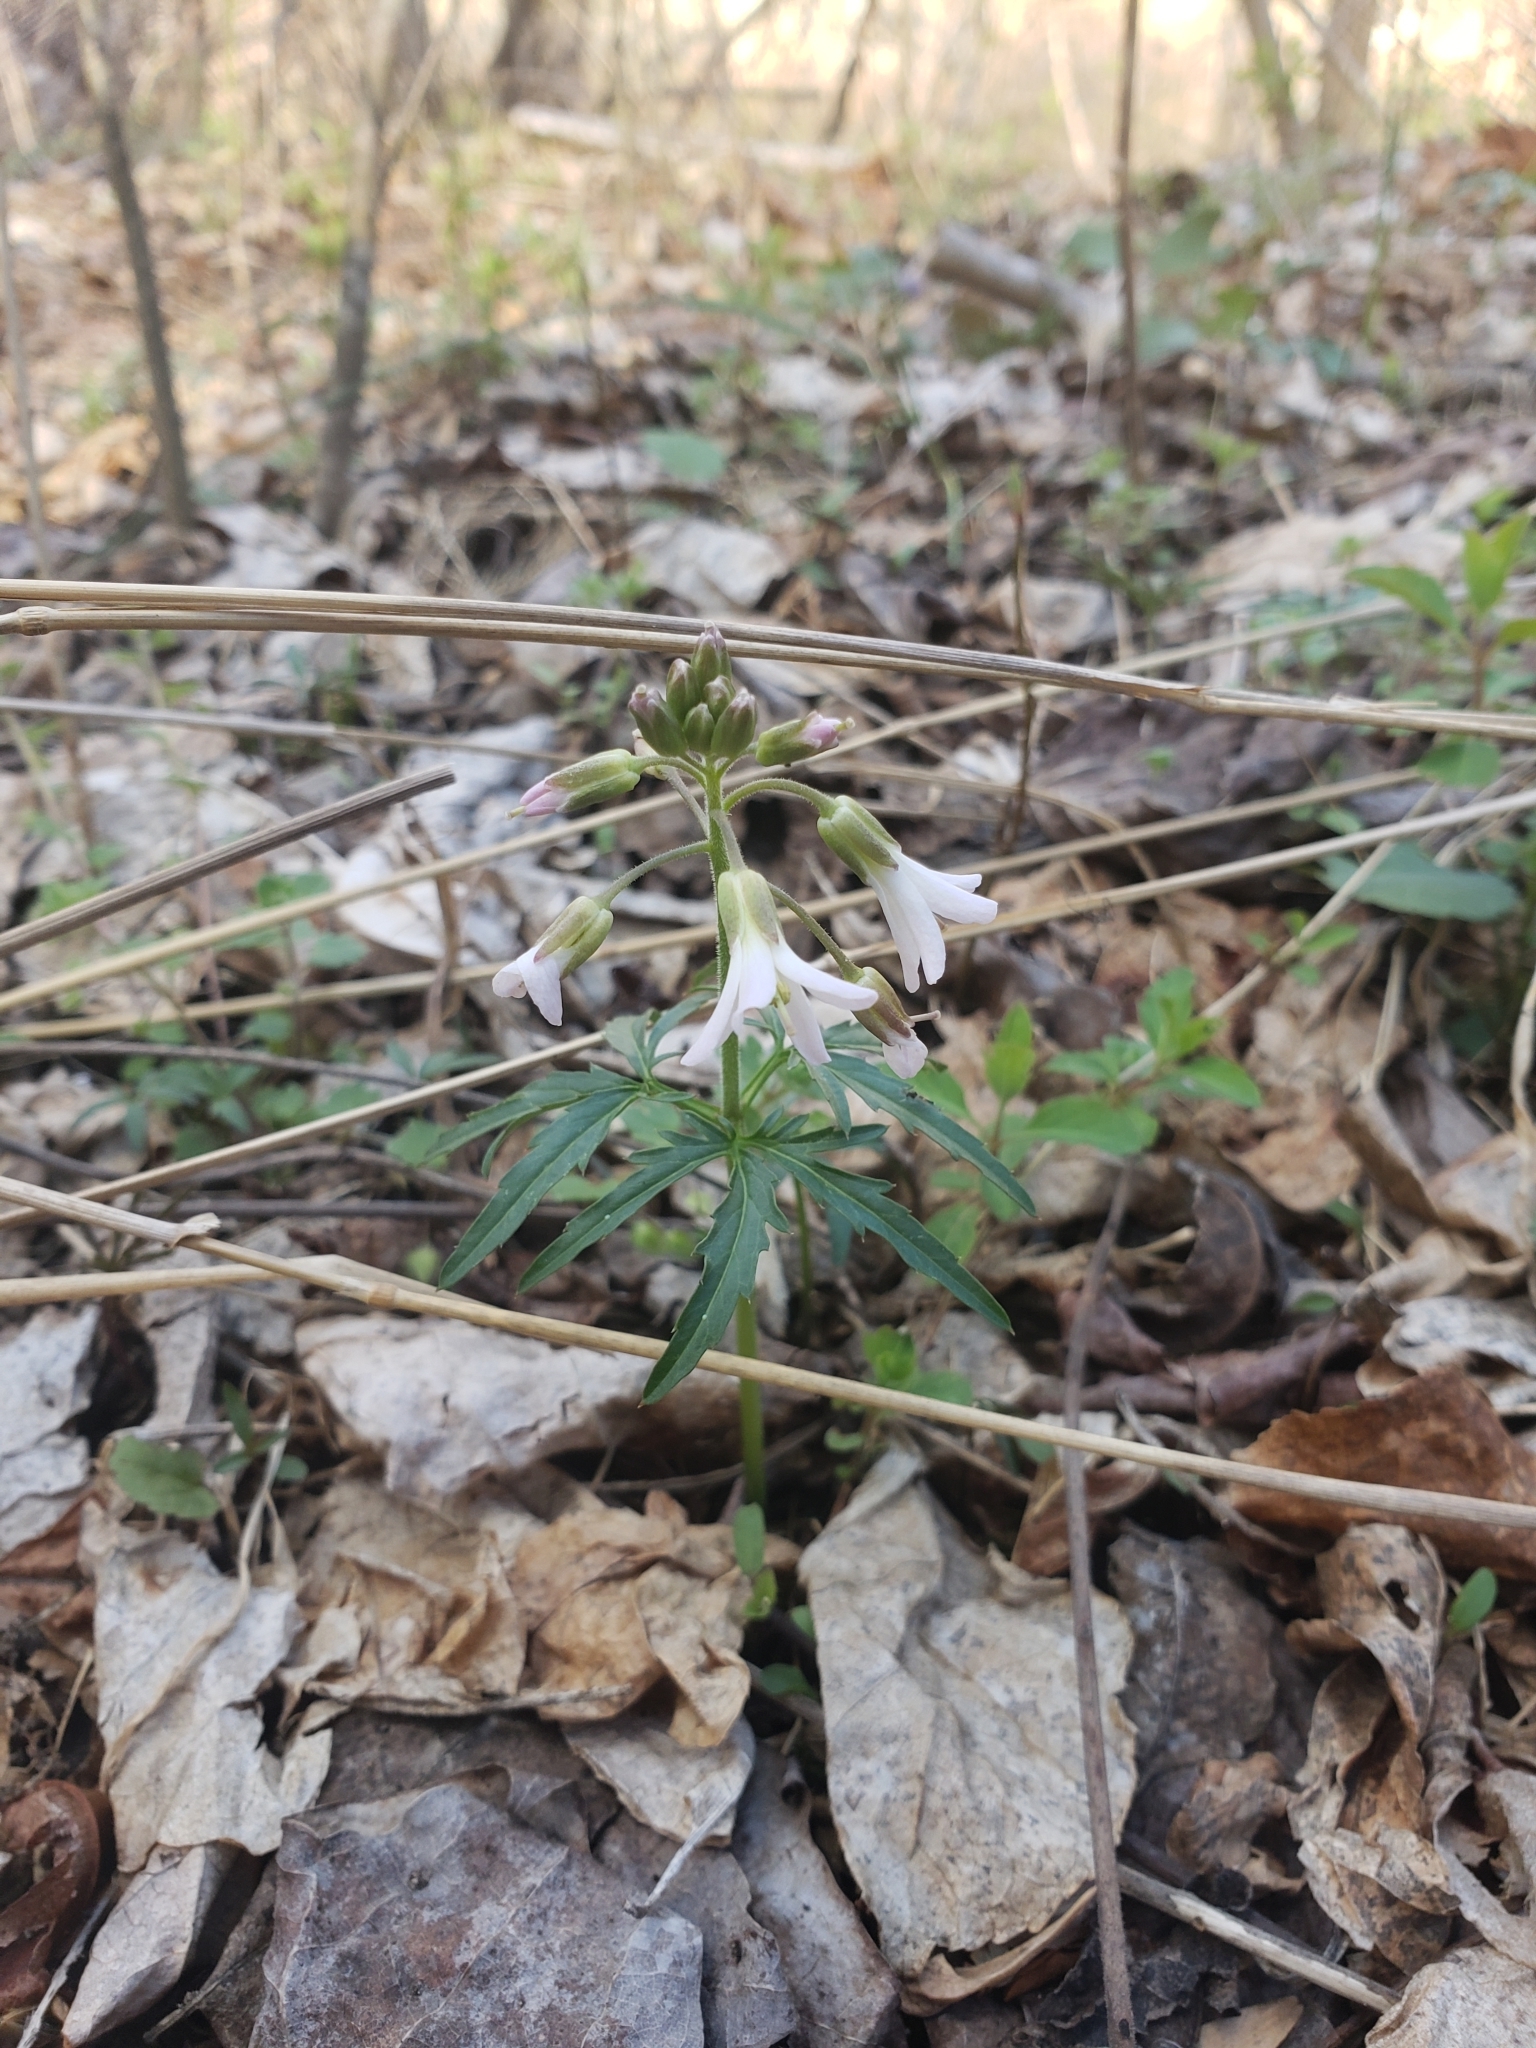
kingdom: Plantae
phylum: Tracheophyta
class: Magnoliopsida
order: Brassicales
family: Brassicaceae
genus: Cardamine
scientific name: Cardamine concatenata
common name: Cut-leaf toothcup
